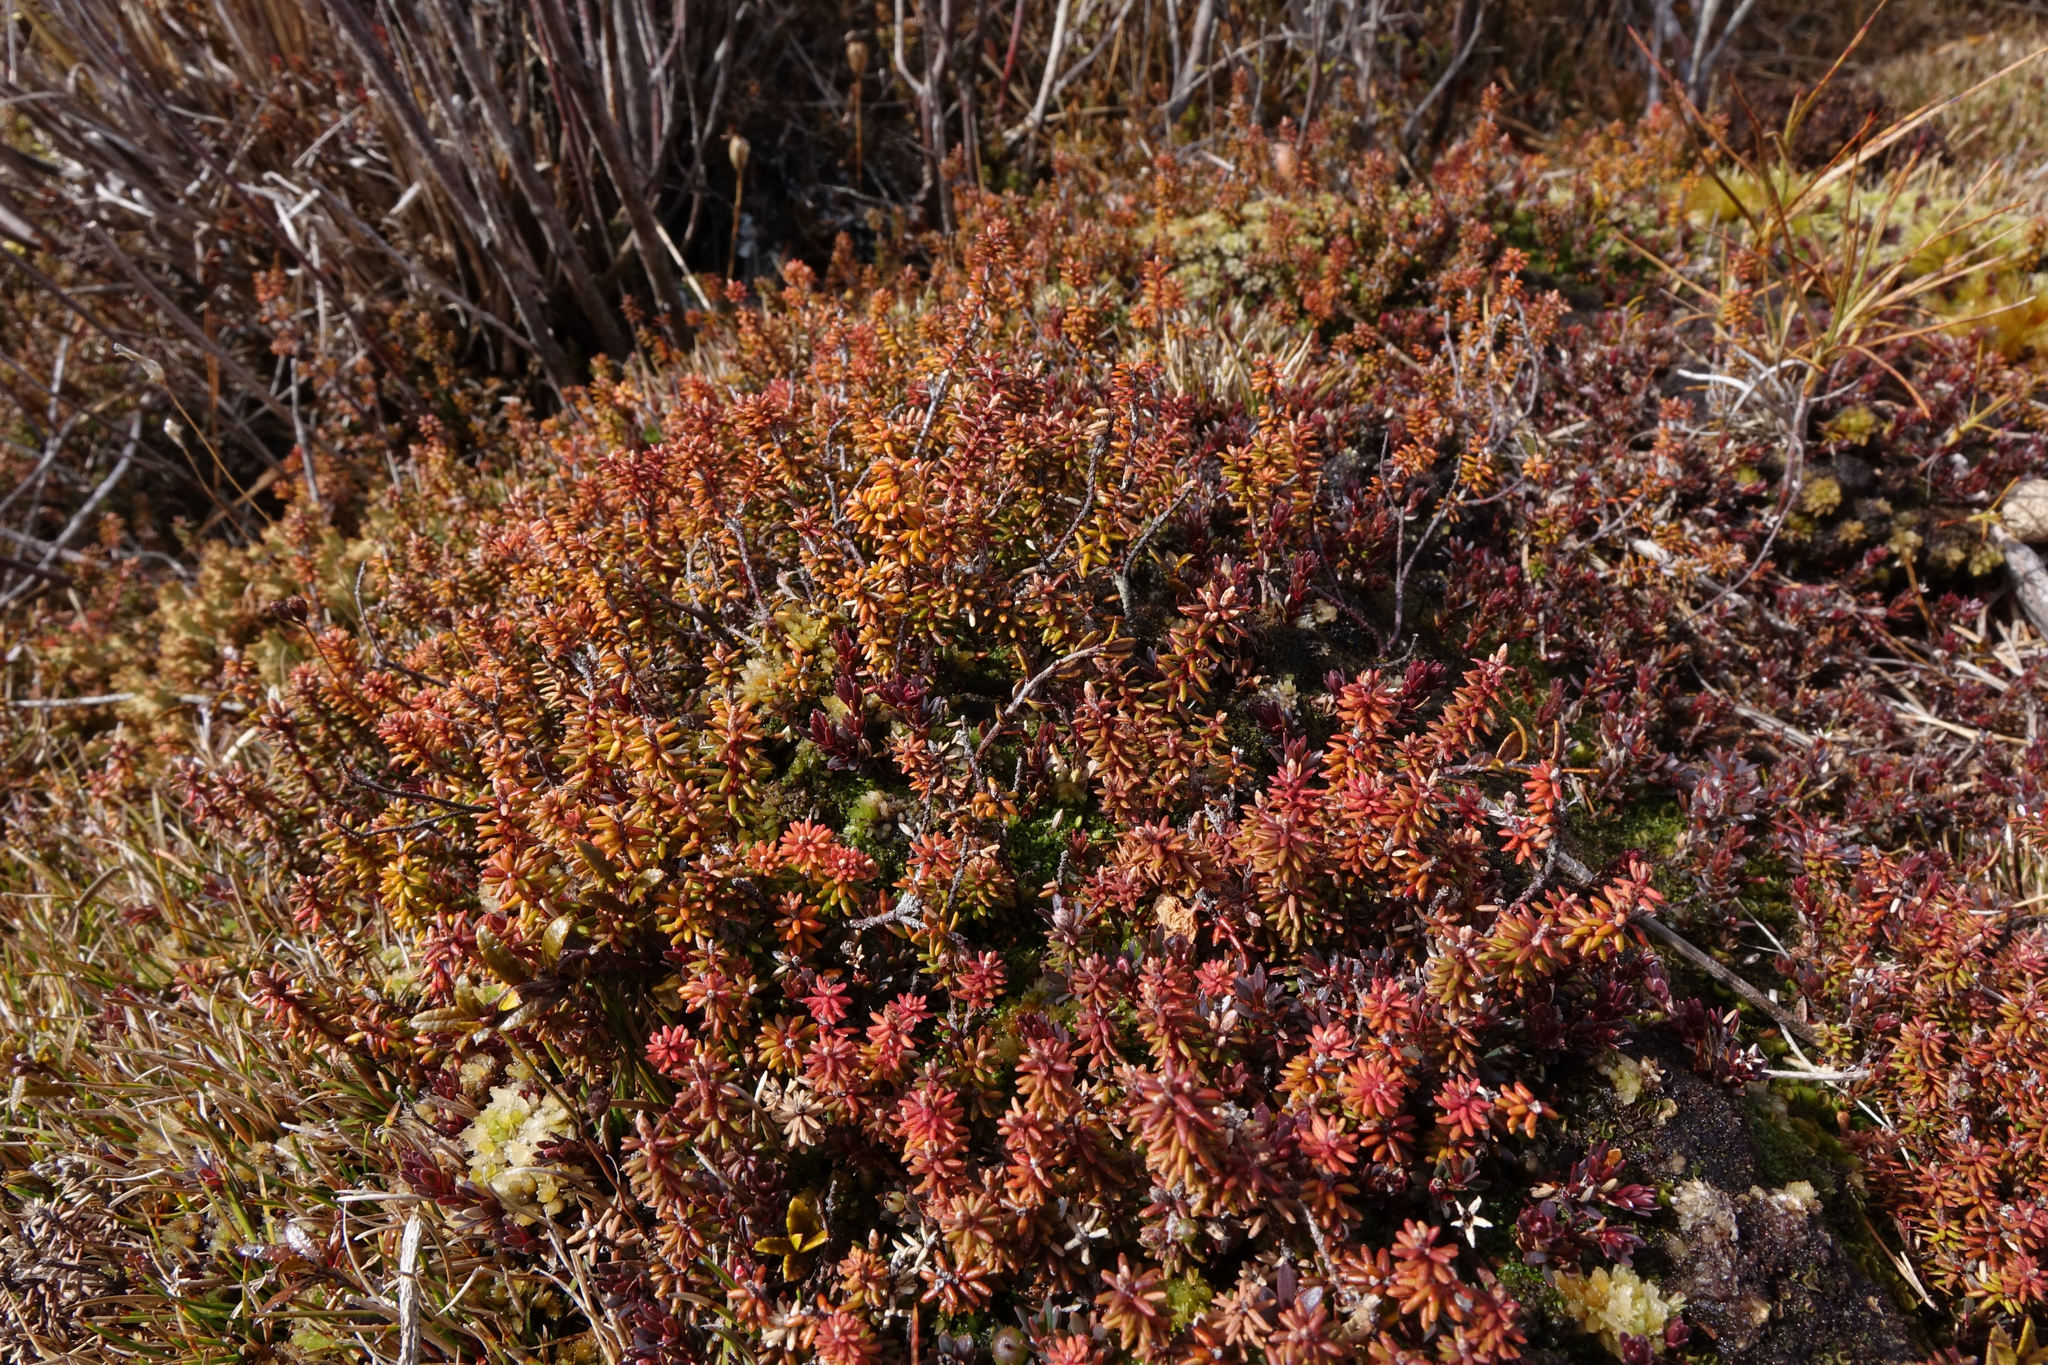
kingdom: Plantae
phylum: Tracheophyta
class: Magnoliopsida
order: Ericales
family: Ericaceae
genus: Androstoma
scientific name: Androstoma empetrifolia
